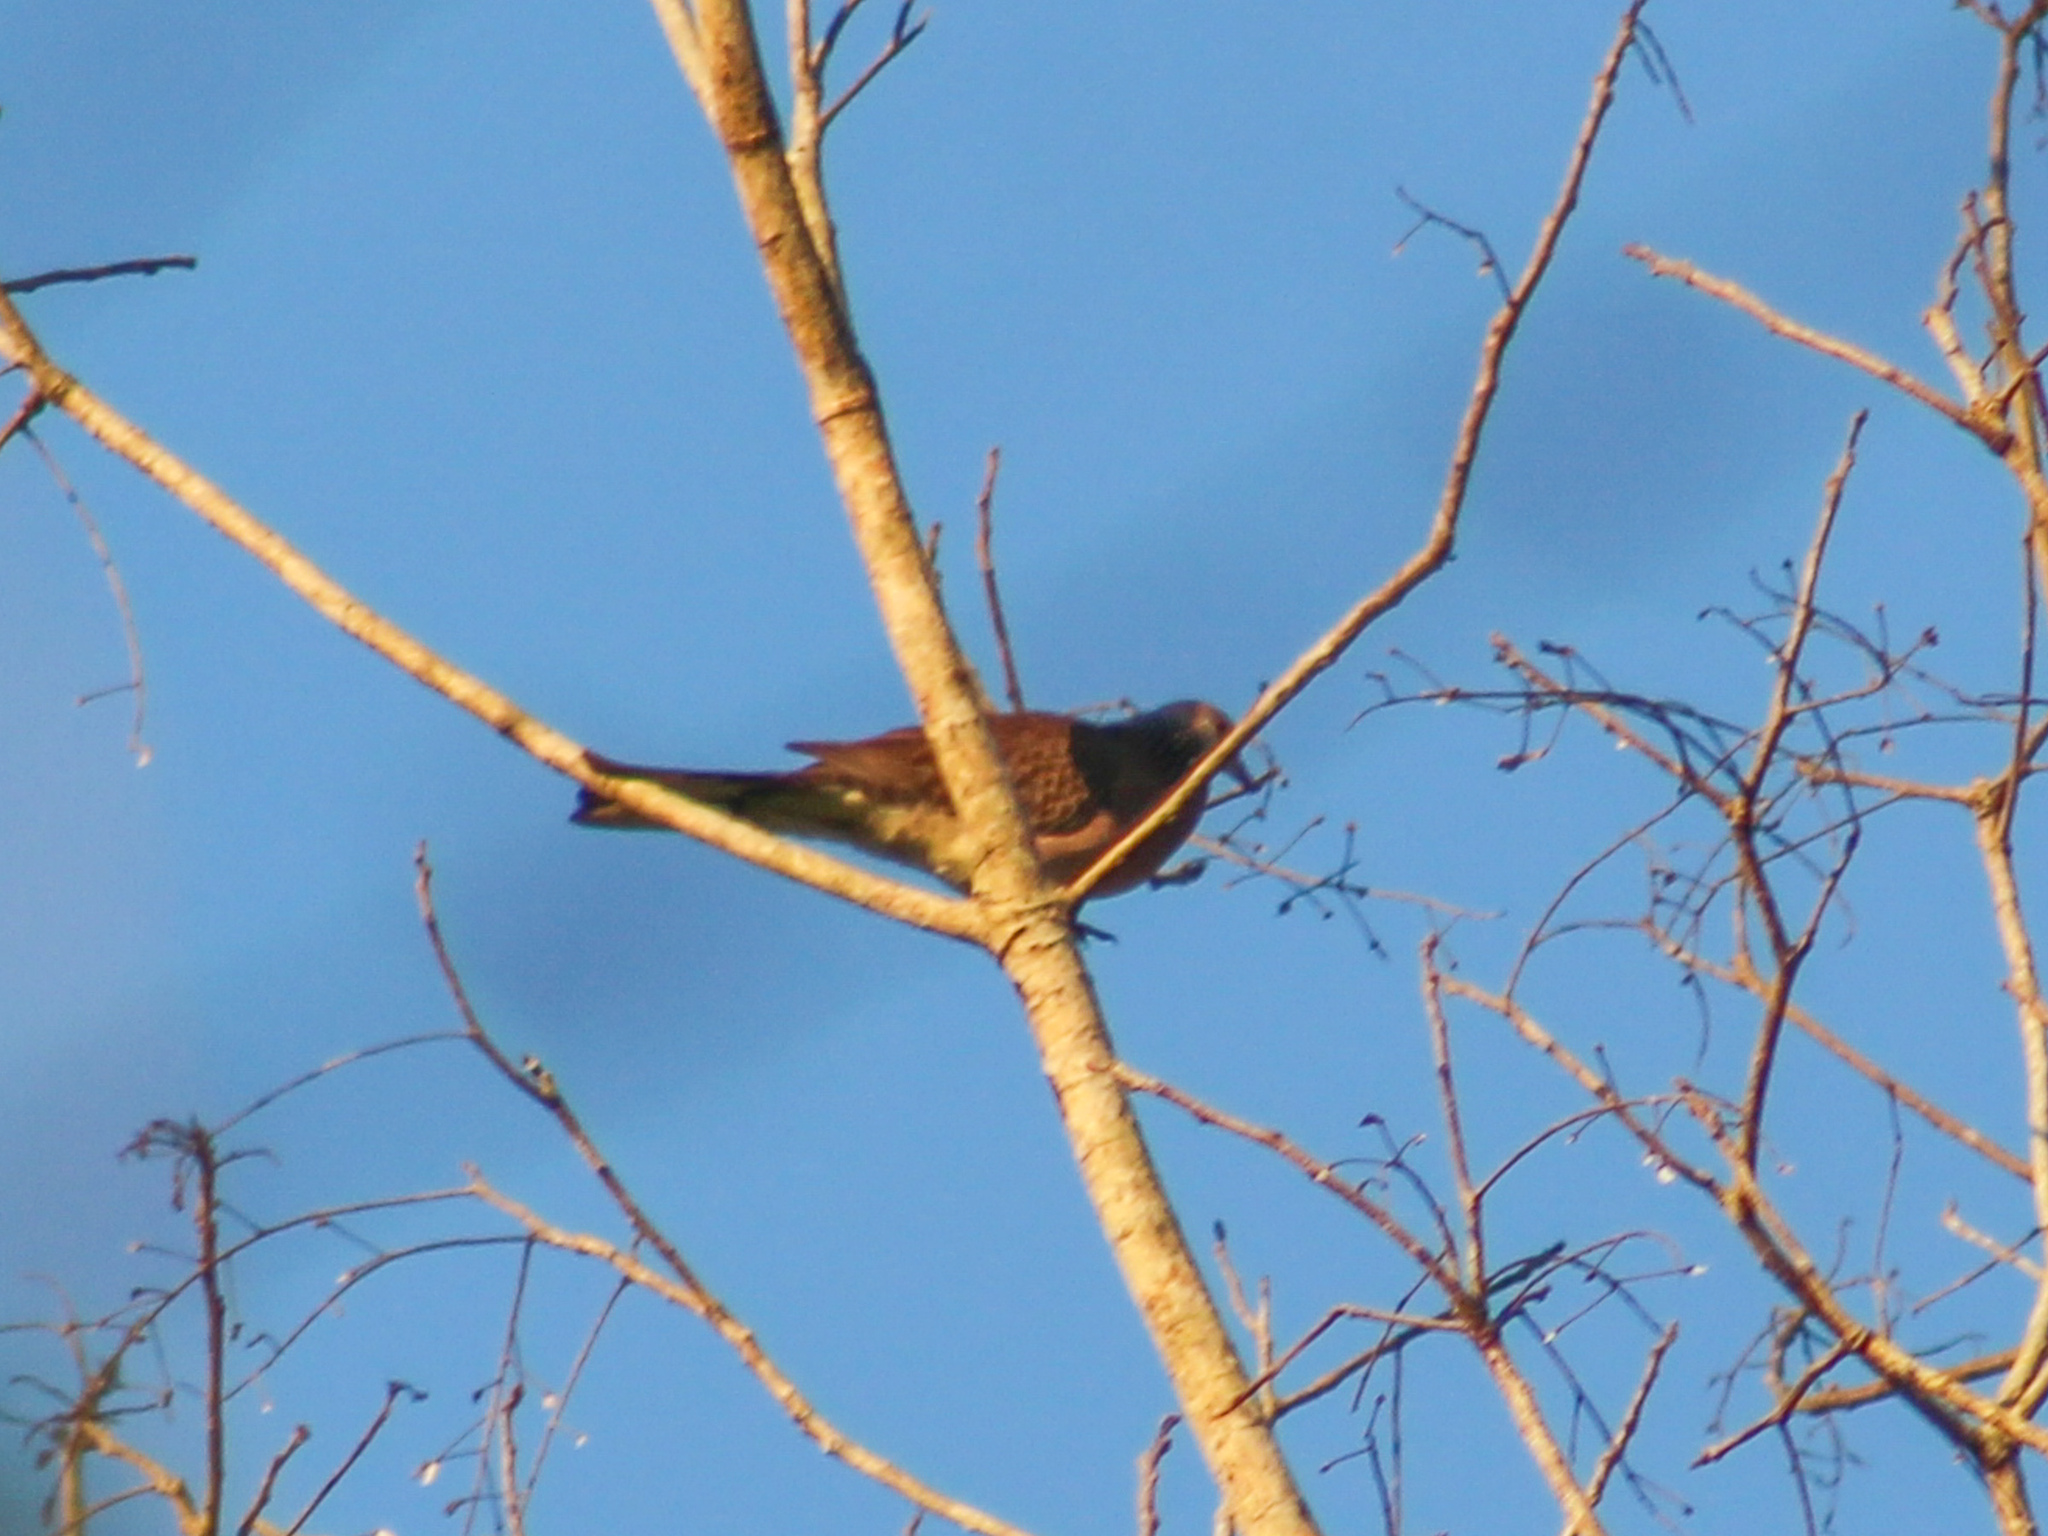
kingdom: Animalia
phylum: Chordata
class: Aves
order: Columbiformes
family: Columbidae
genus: Spilopelia
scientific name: Spilopelia chinensis
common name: Spotted dove
